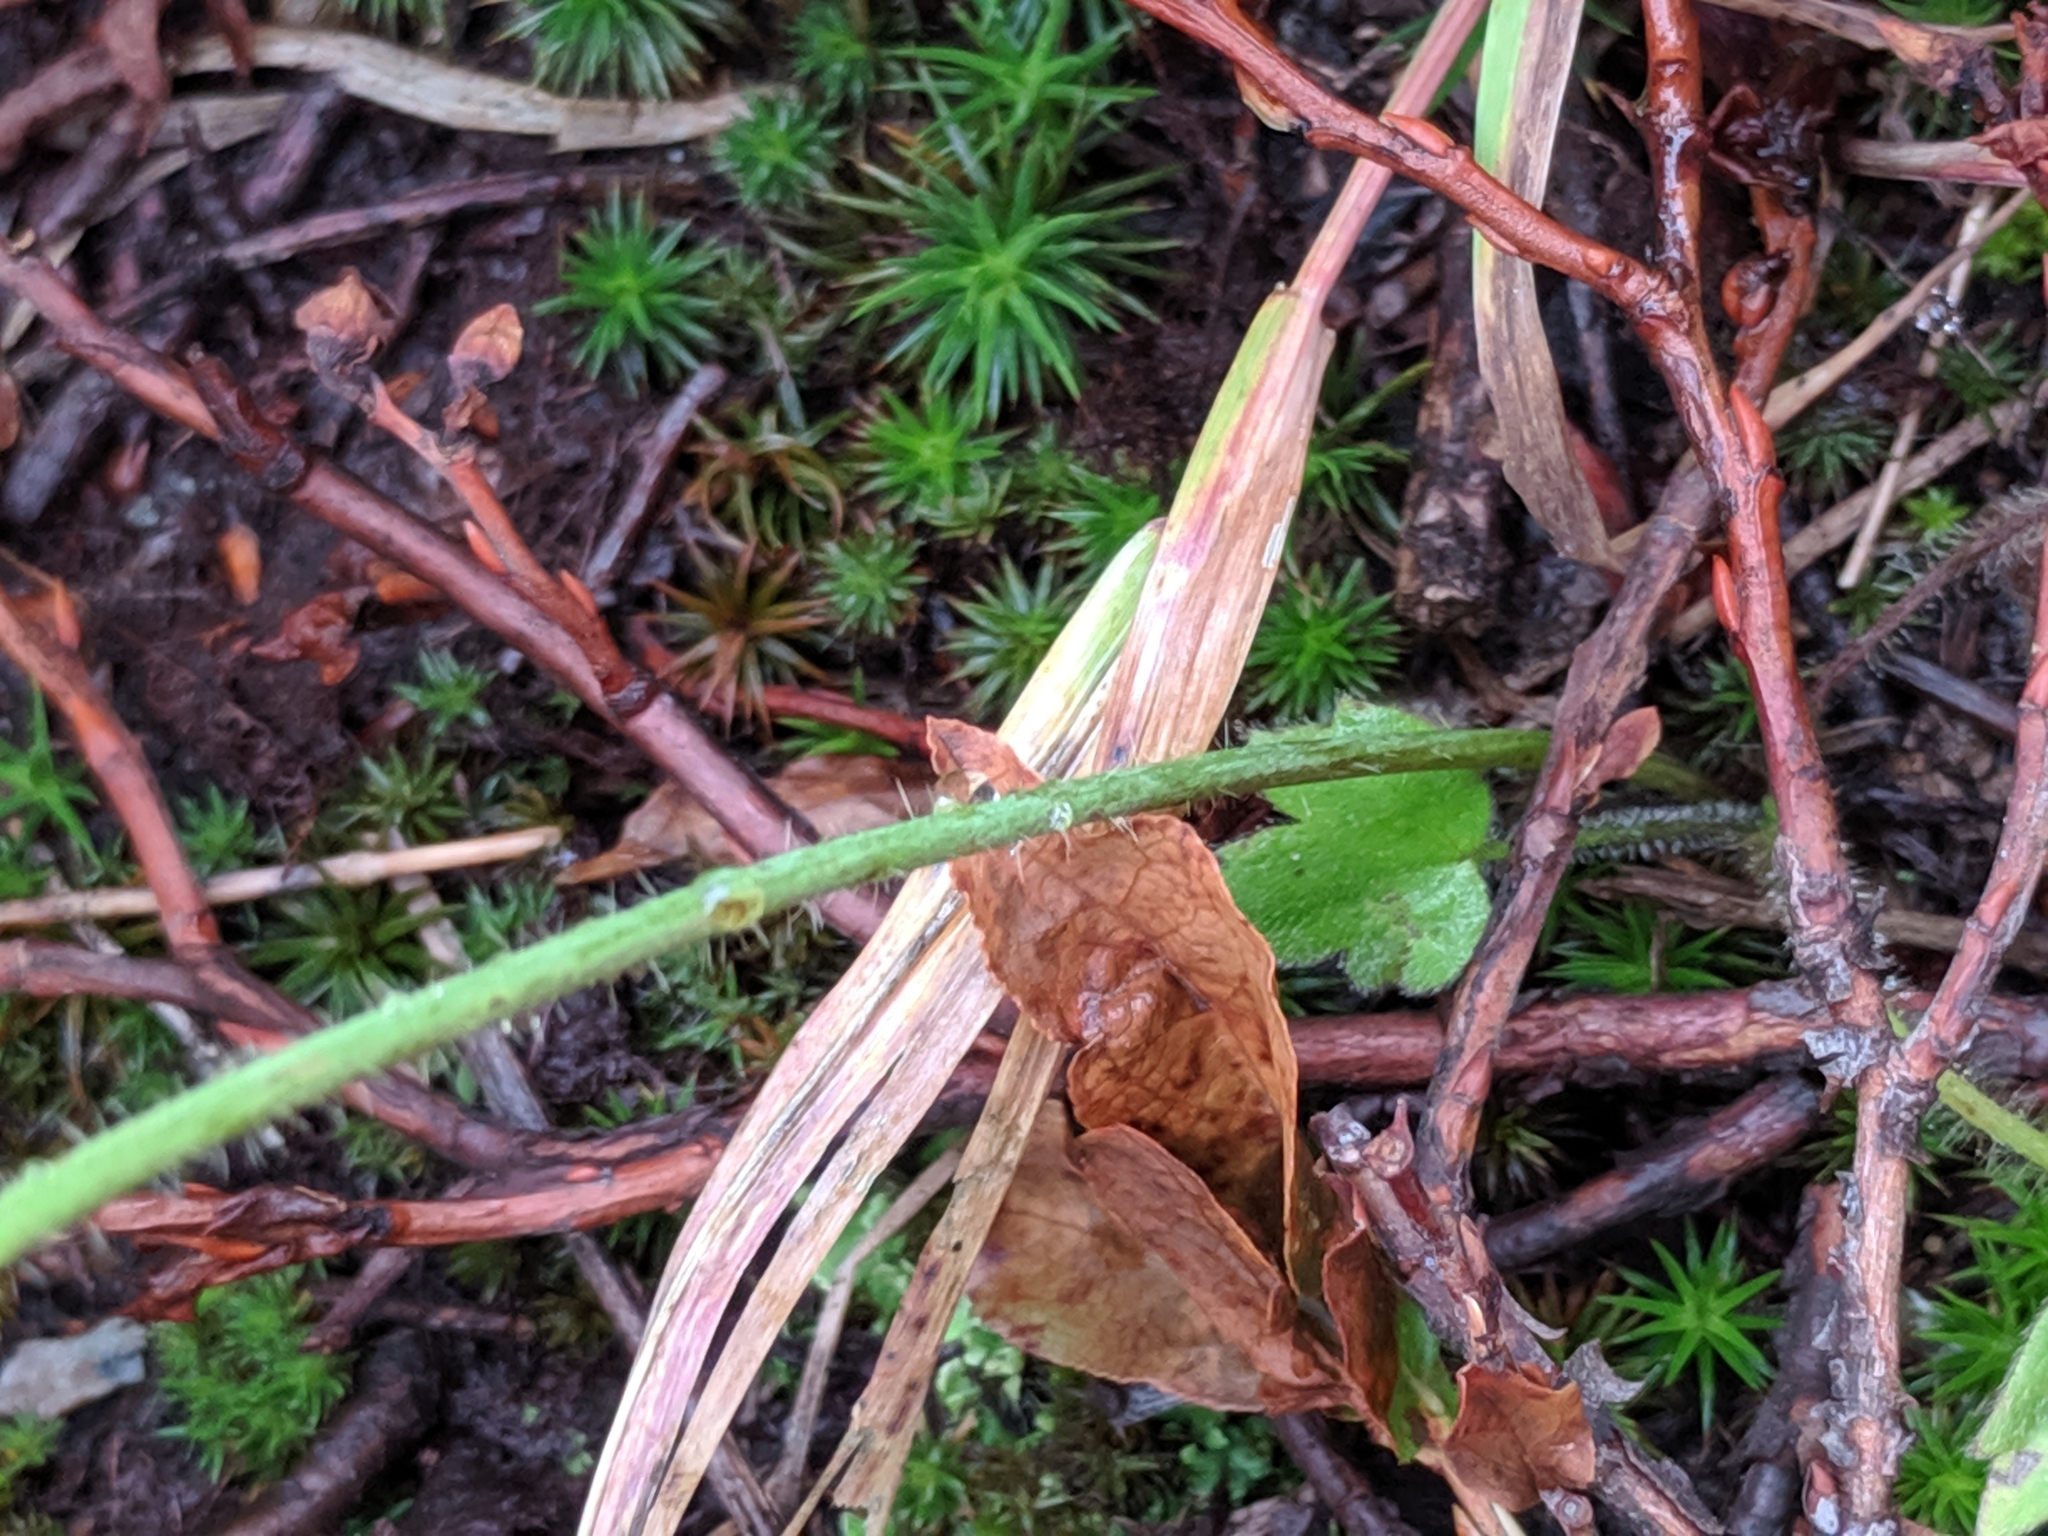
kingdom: Plantae
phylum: Tracheophyta
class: Magnoliopsida
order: Ranunculales
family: Ranunculaceae
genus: Ranunculus
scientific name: Ranunculus uncinatus
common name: Little buttercup
